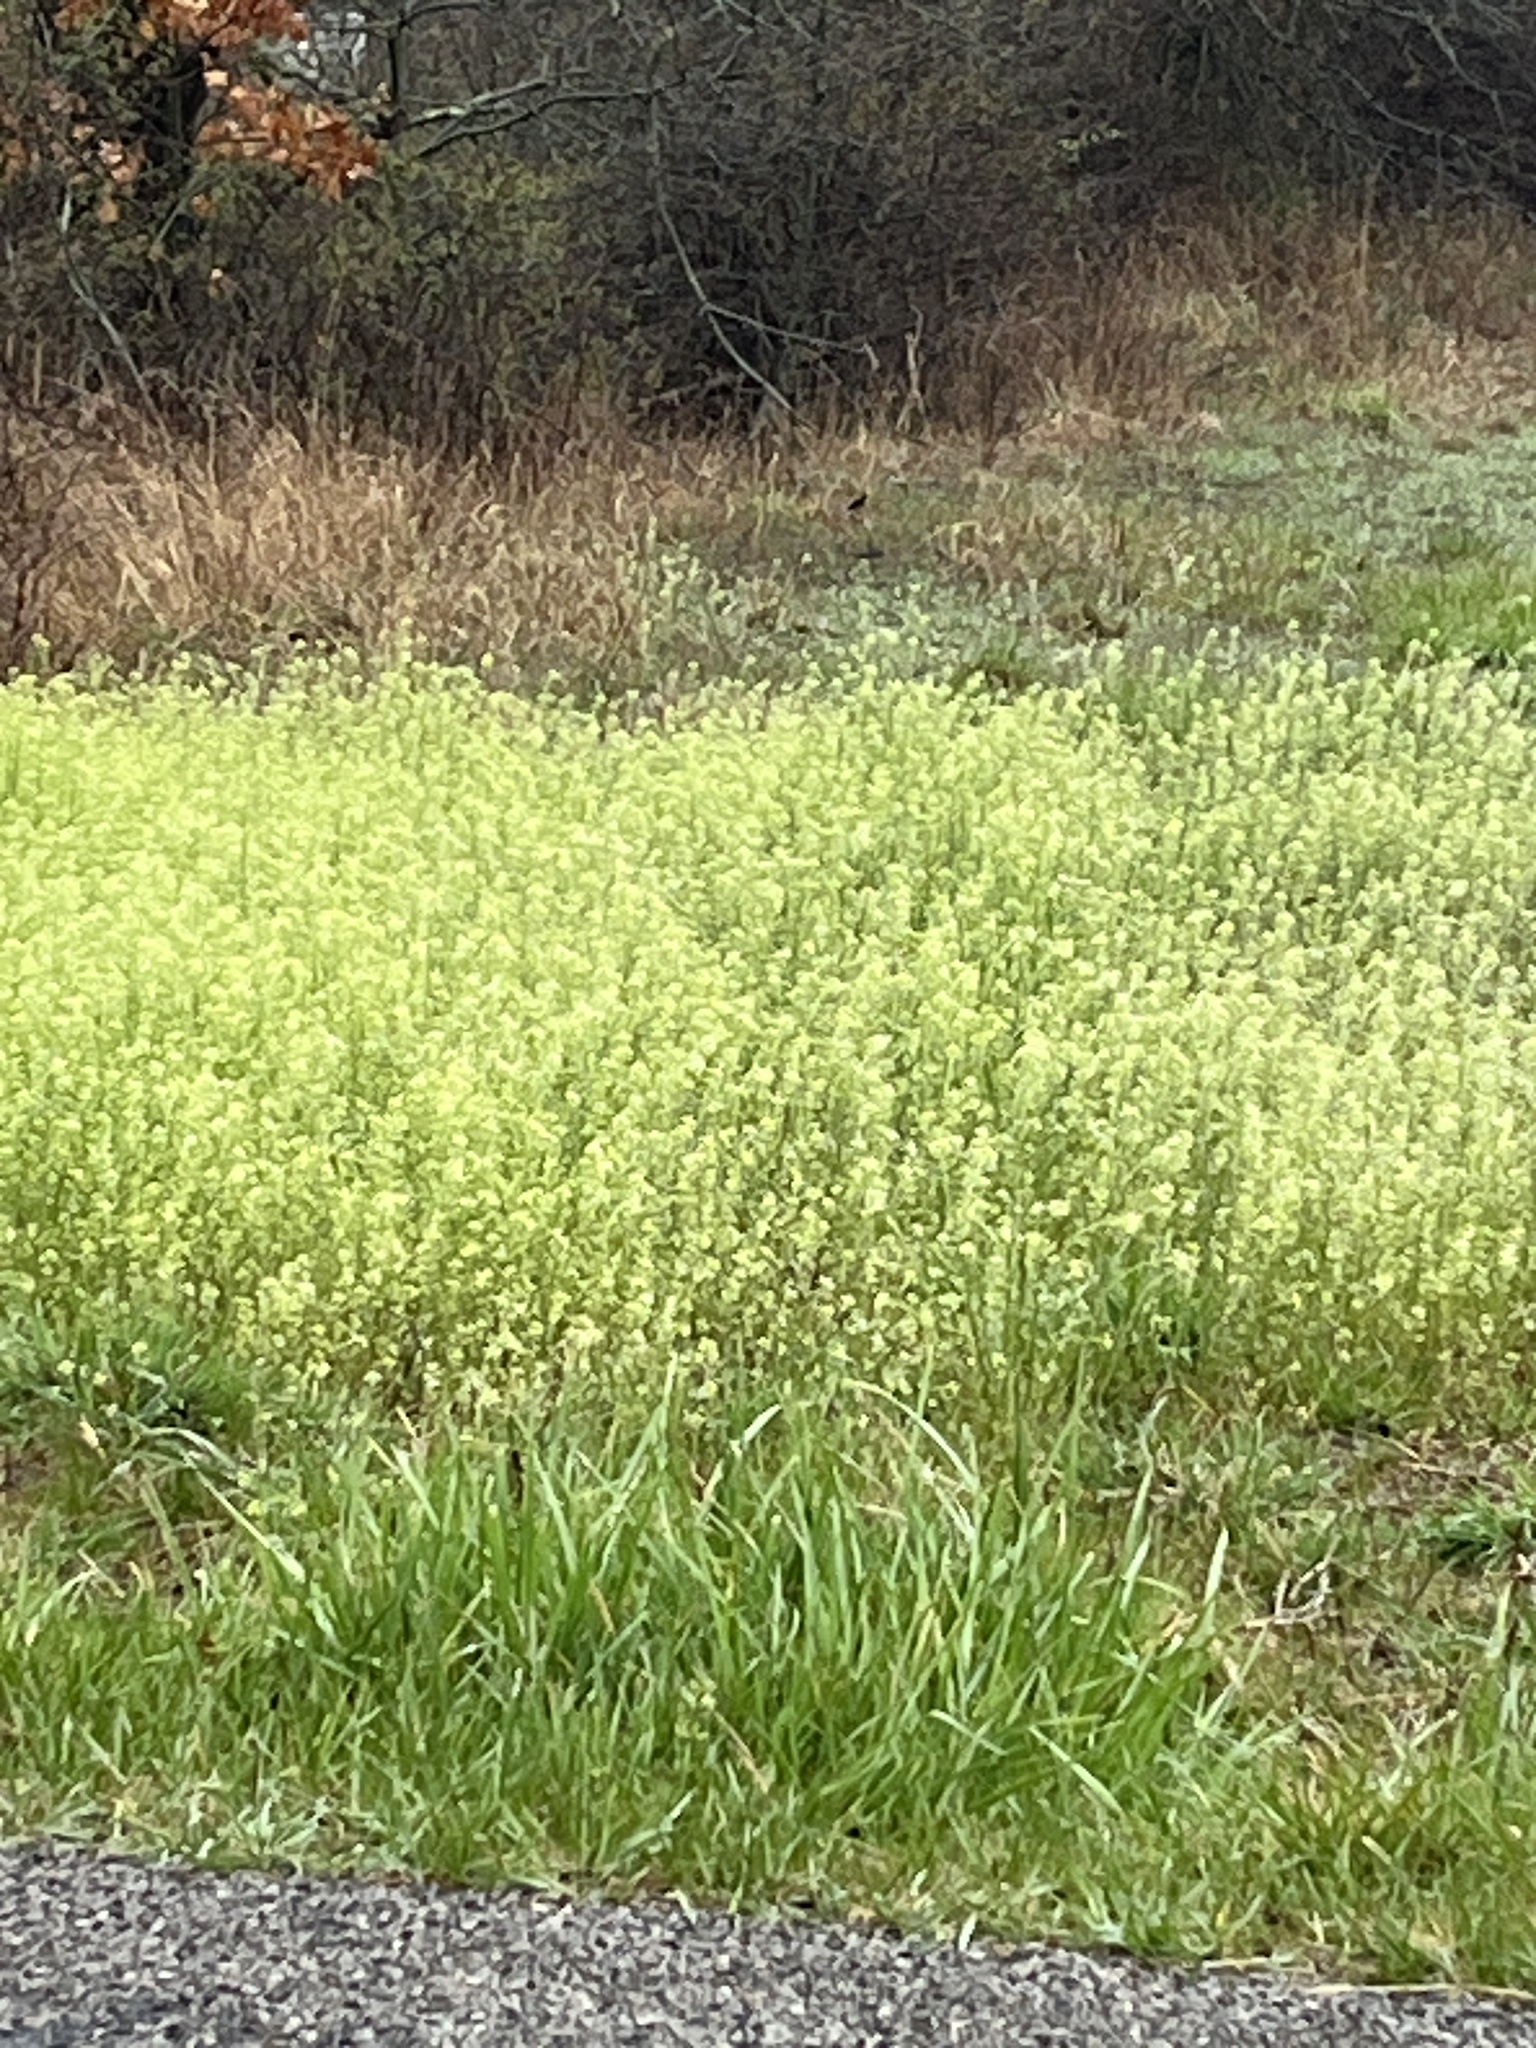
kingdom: Plantae
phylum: Tracheophyta
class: Magnoliopsida
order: Brassicales
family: Brassicaceae
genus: Mummenhoffia
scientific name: Mummenhoffia alliacea
